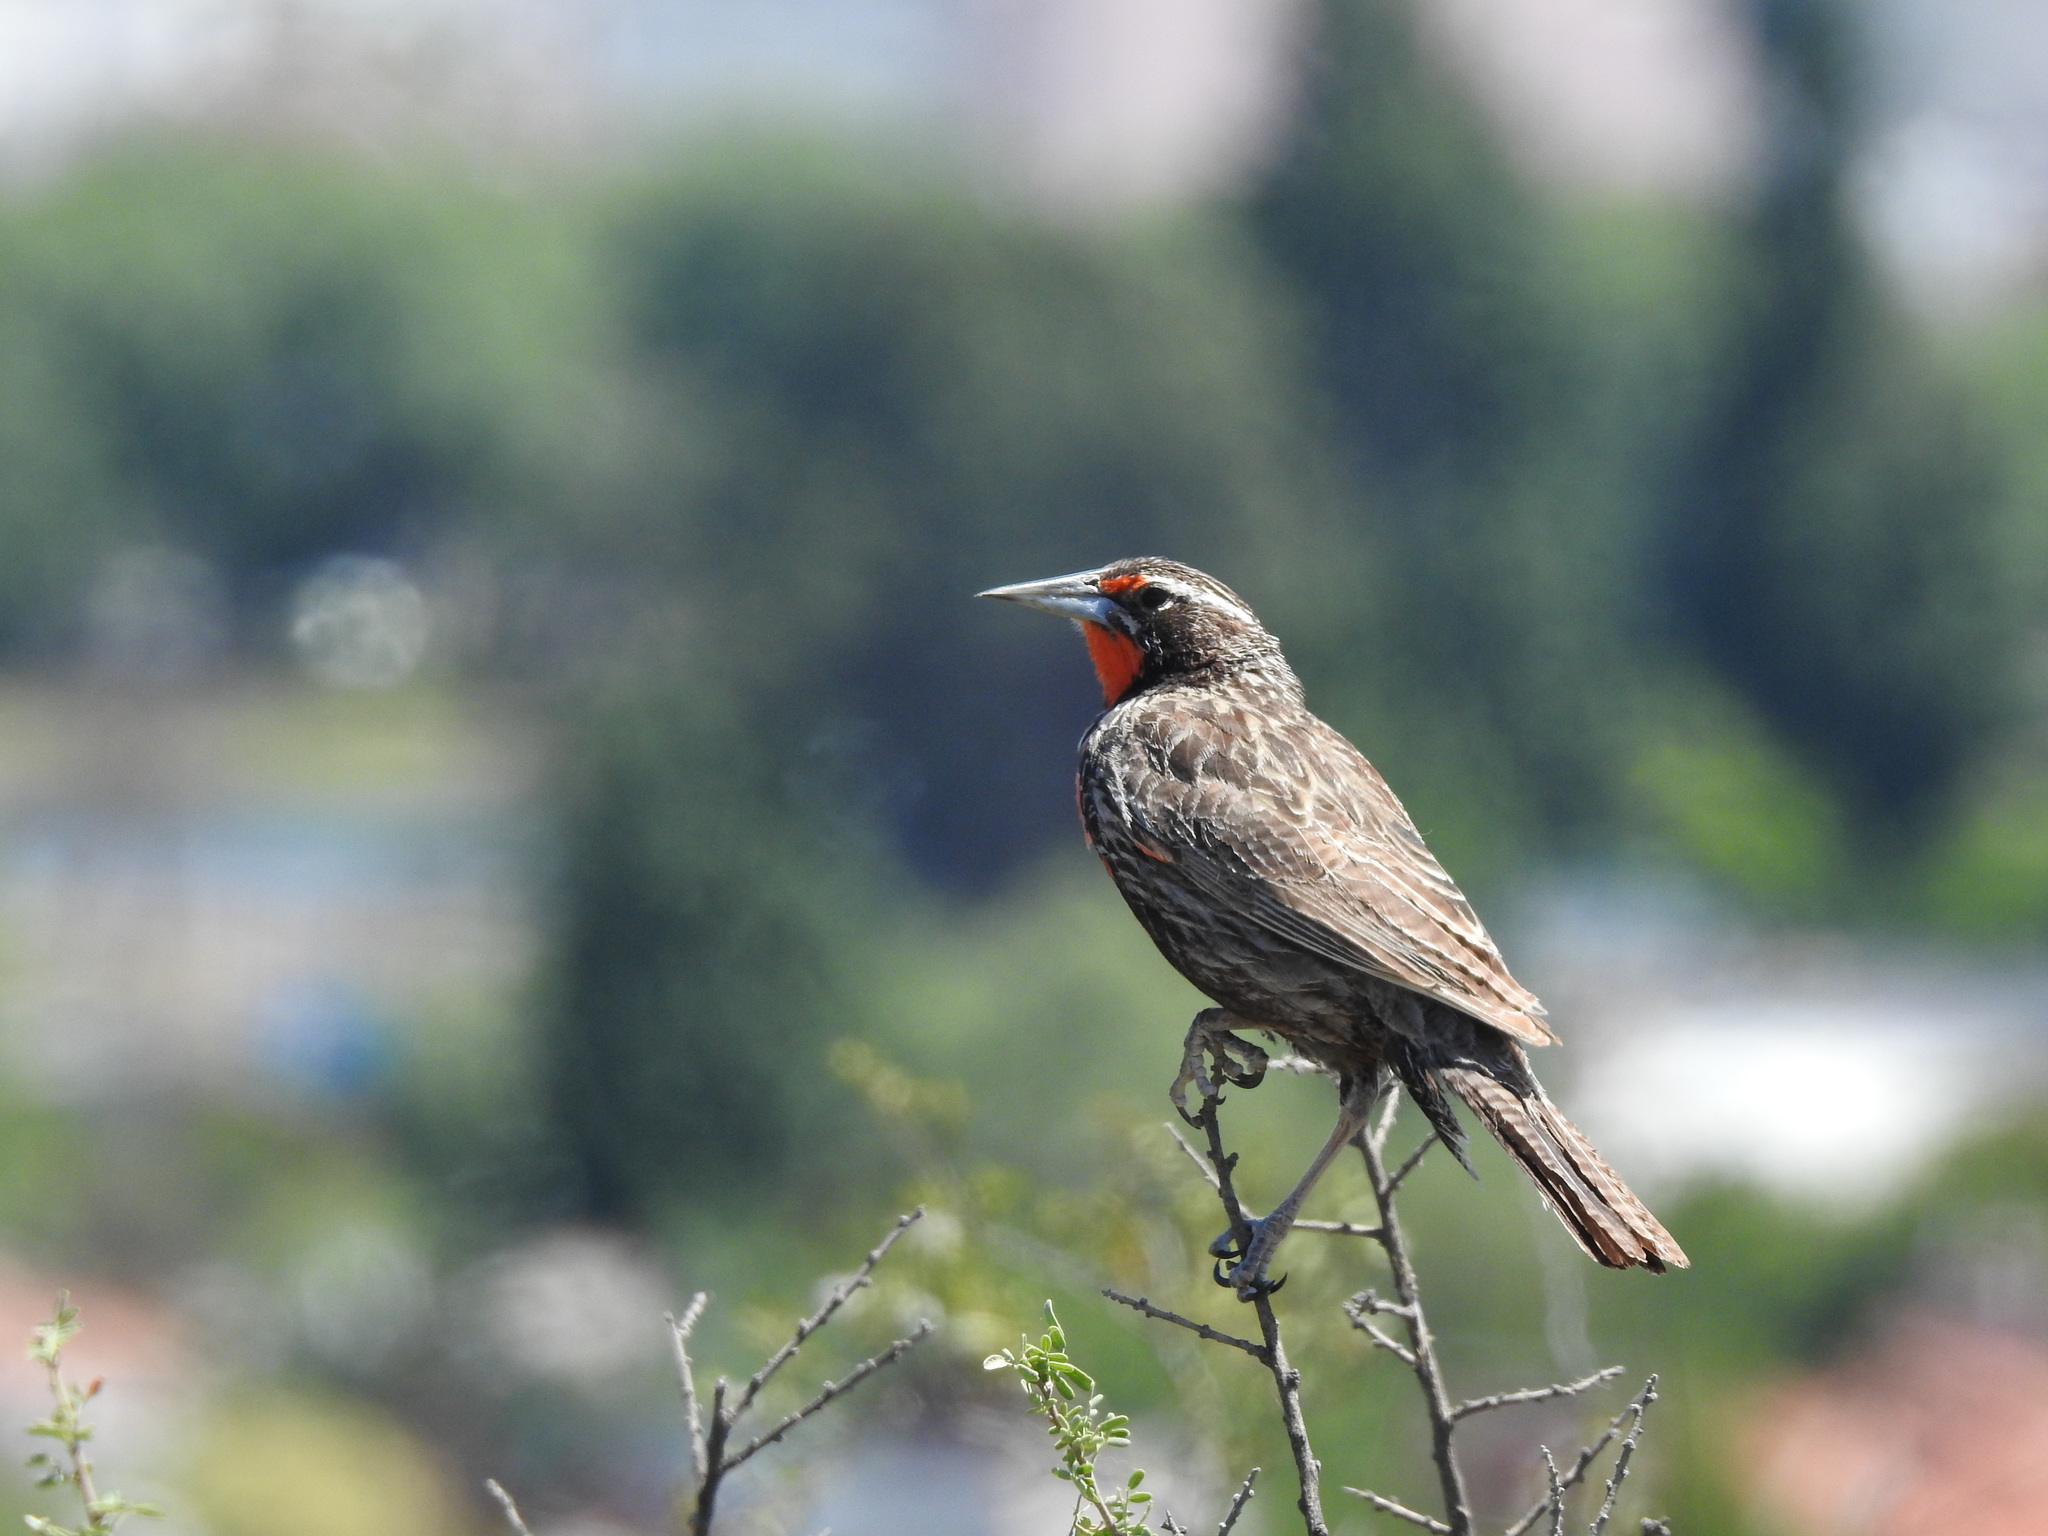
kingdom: Animalia
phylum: Chordata
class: Aves
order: Passeriformes
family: Icteridae
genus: Sturnella
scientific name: Sturnella loyca
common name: Long-tailed meadowlark
